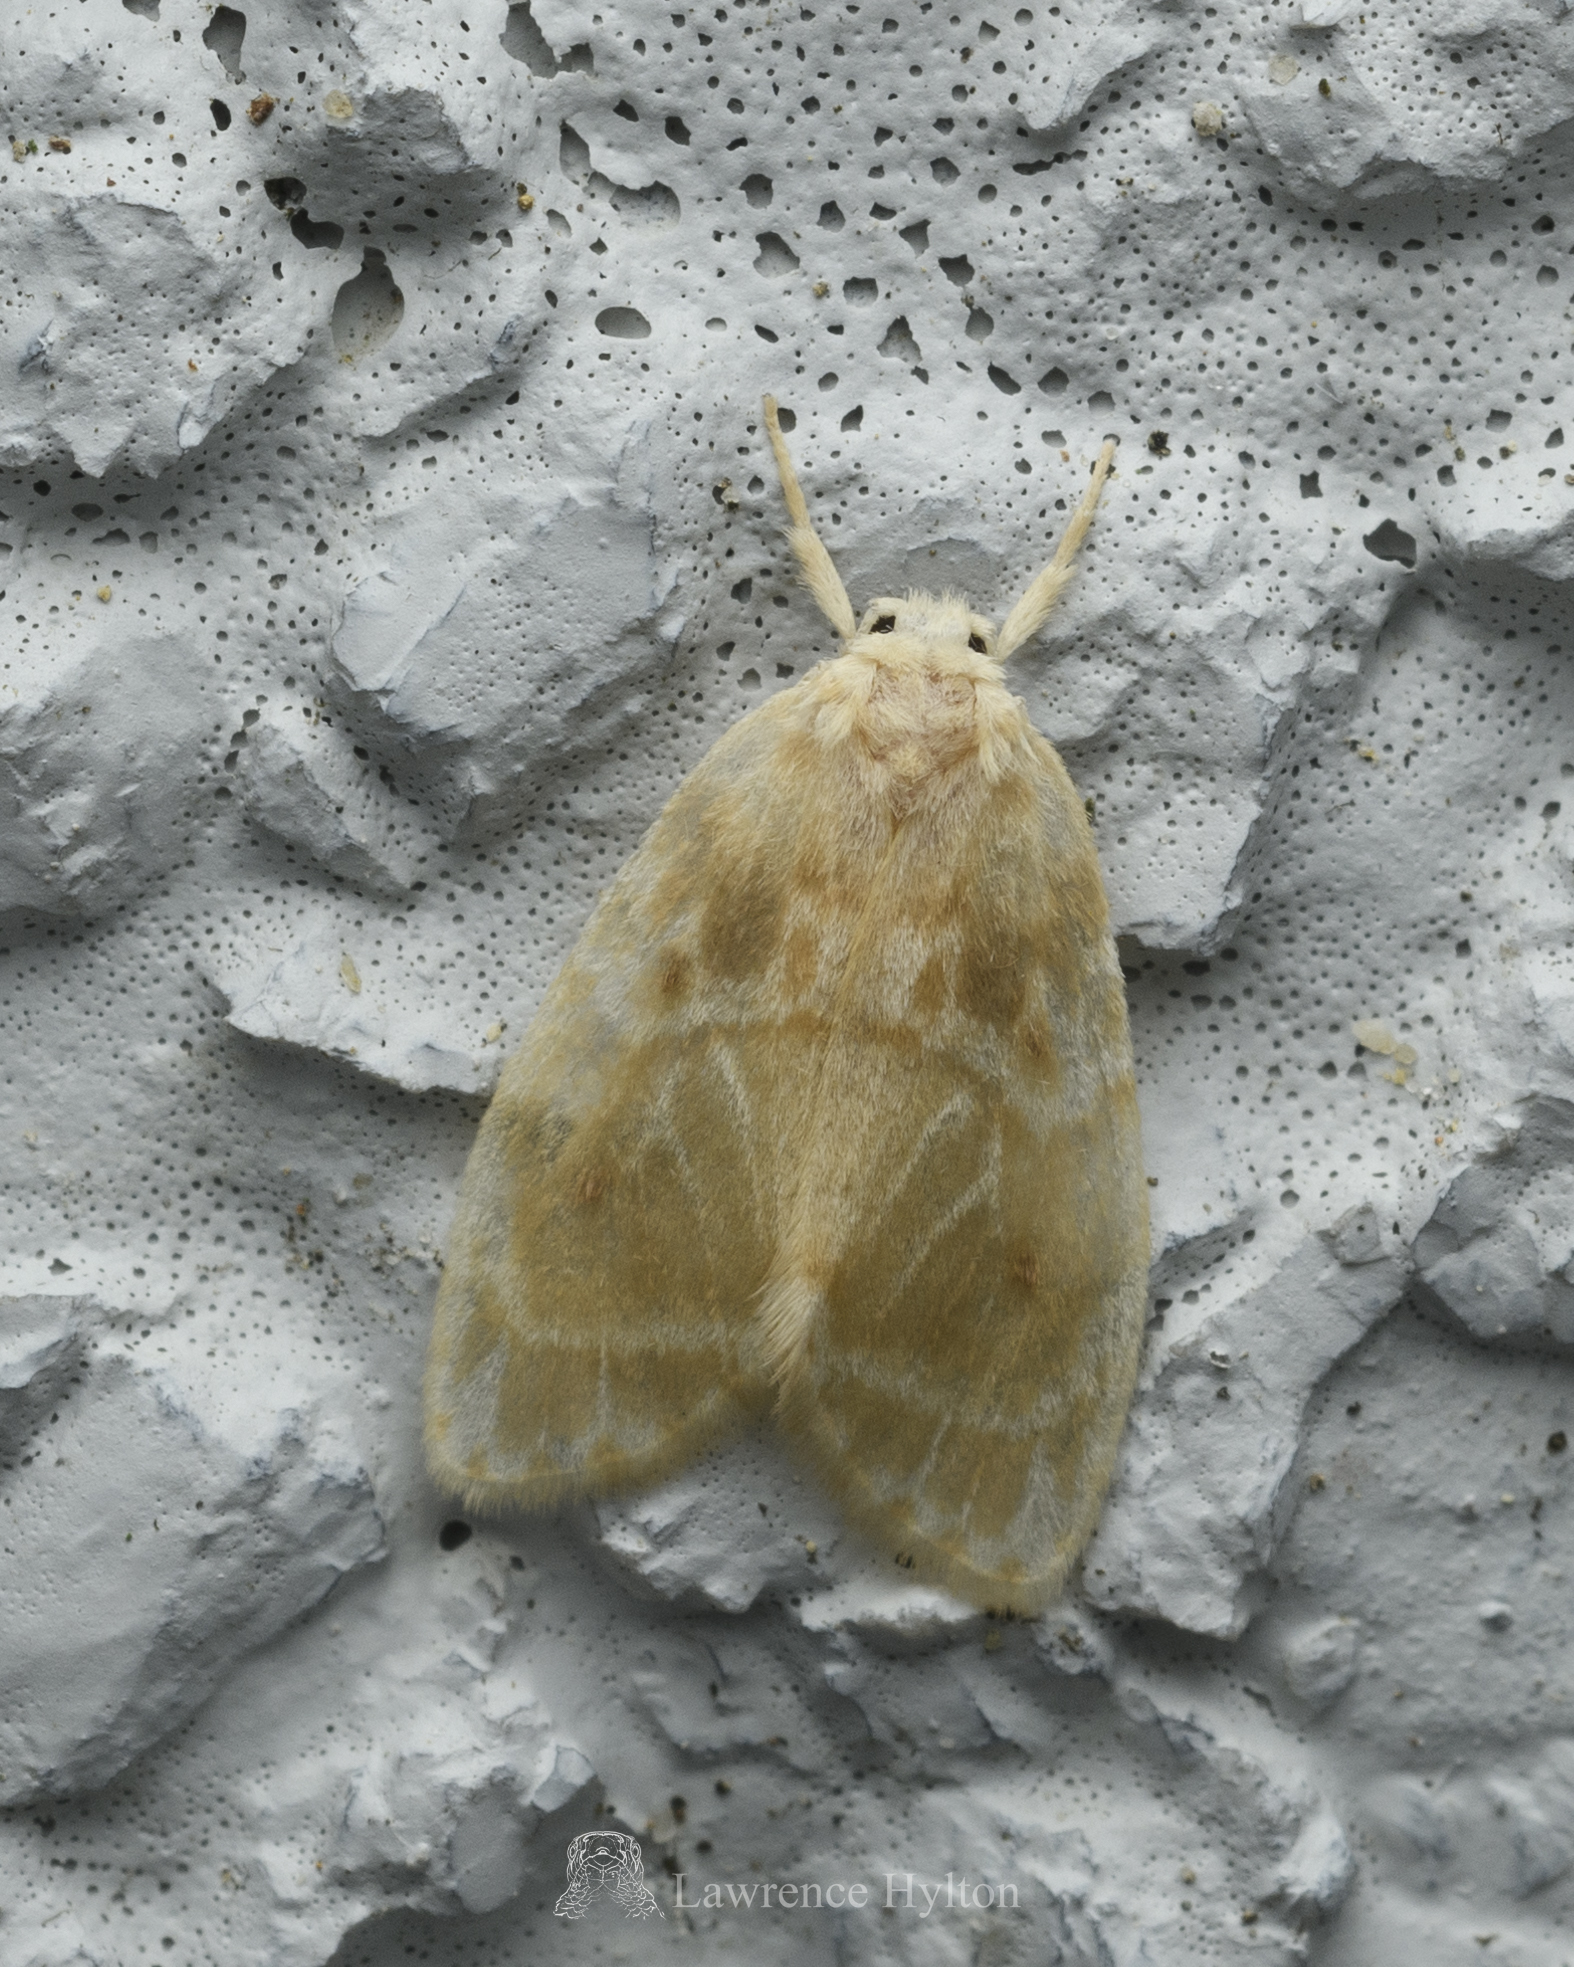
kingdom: Animalia
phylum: Arthropoda
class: Insecta
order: Lepidoptera
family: Erebidae
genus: Schistophleps
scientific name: Schistophleps bipuncta
